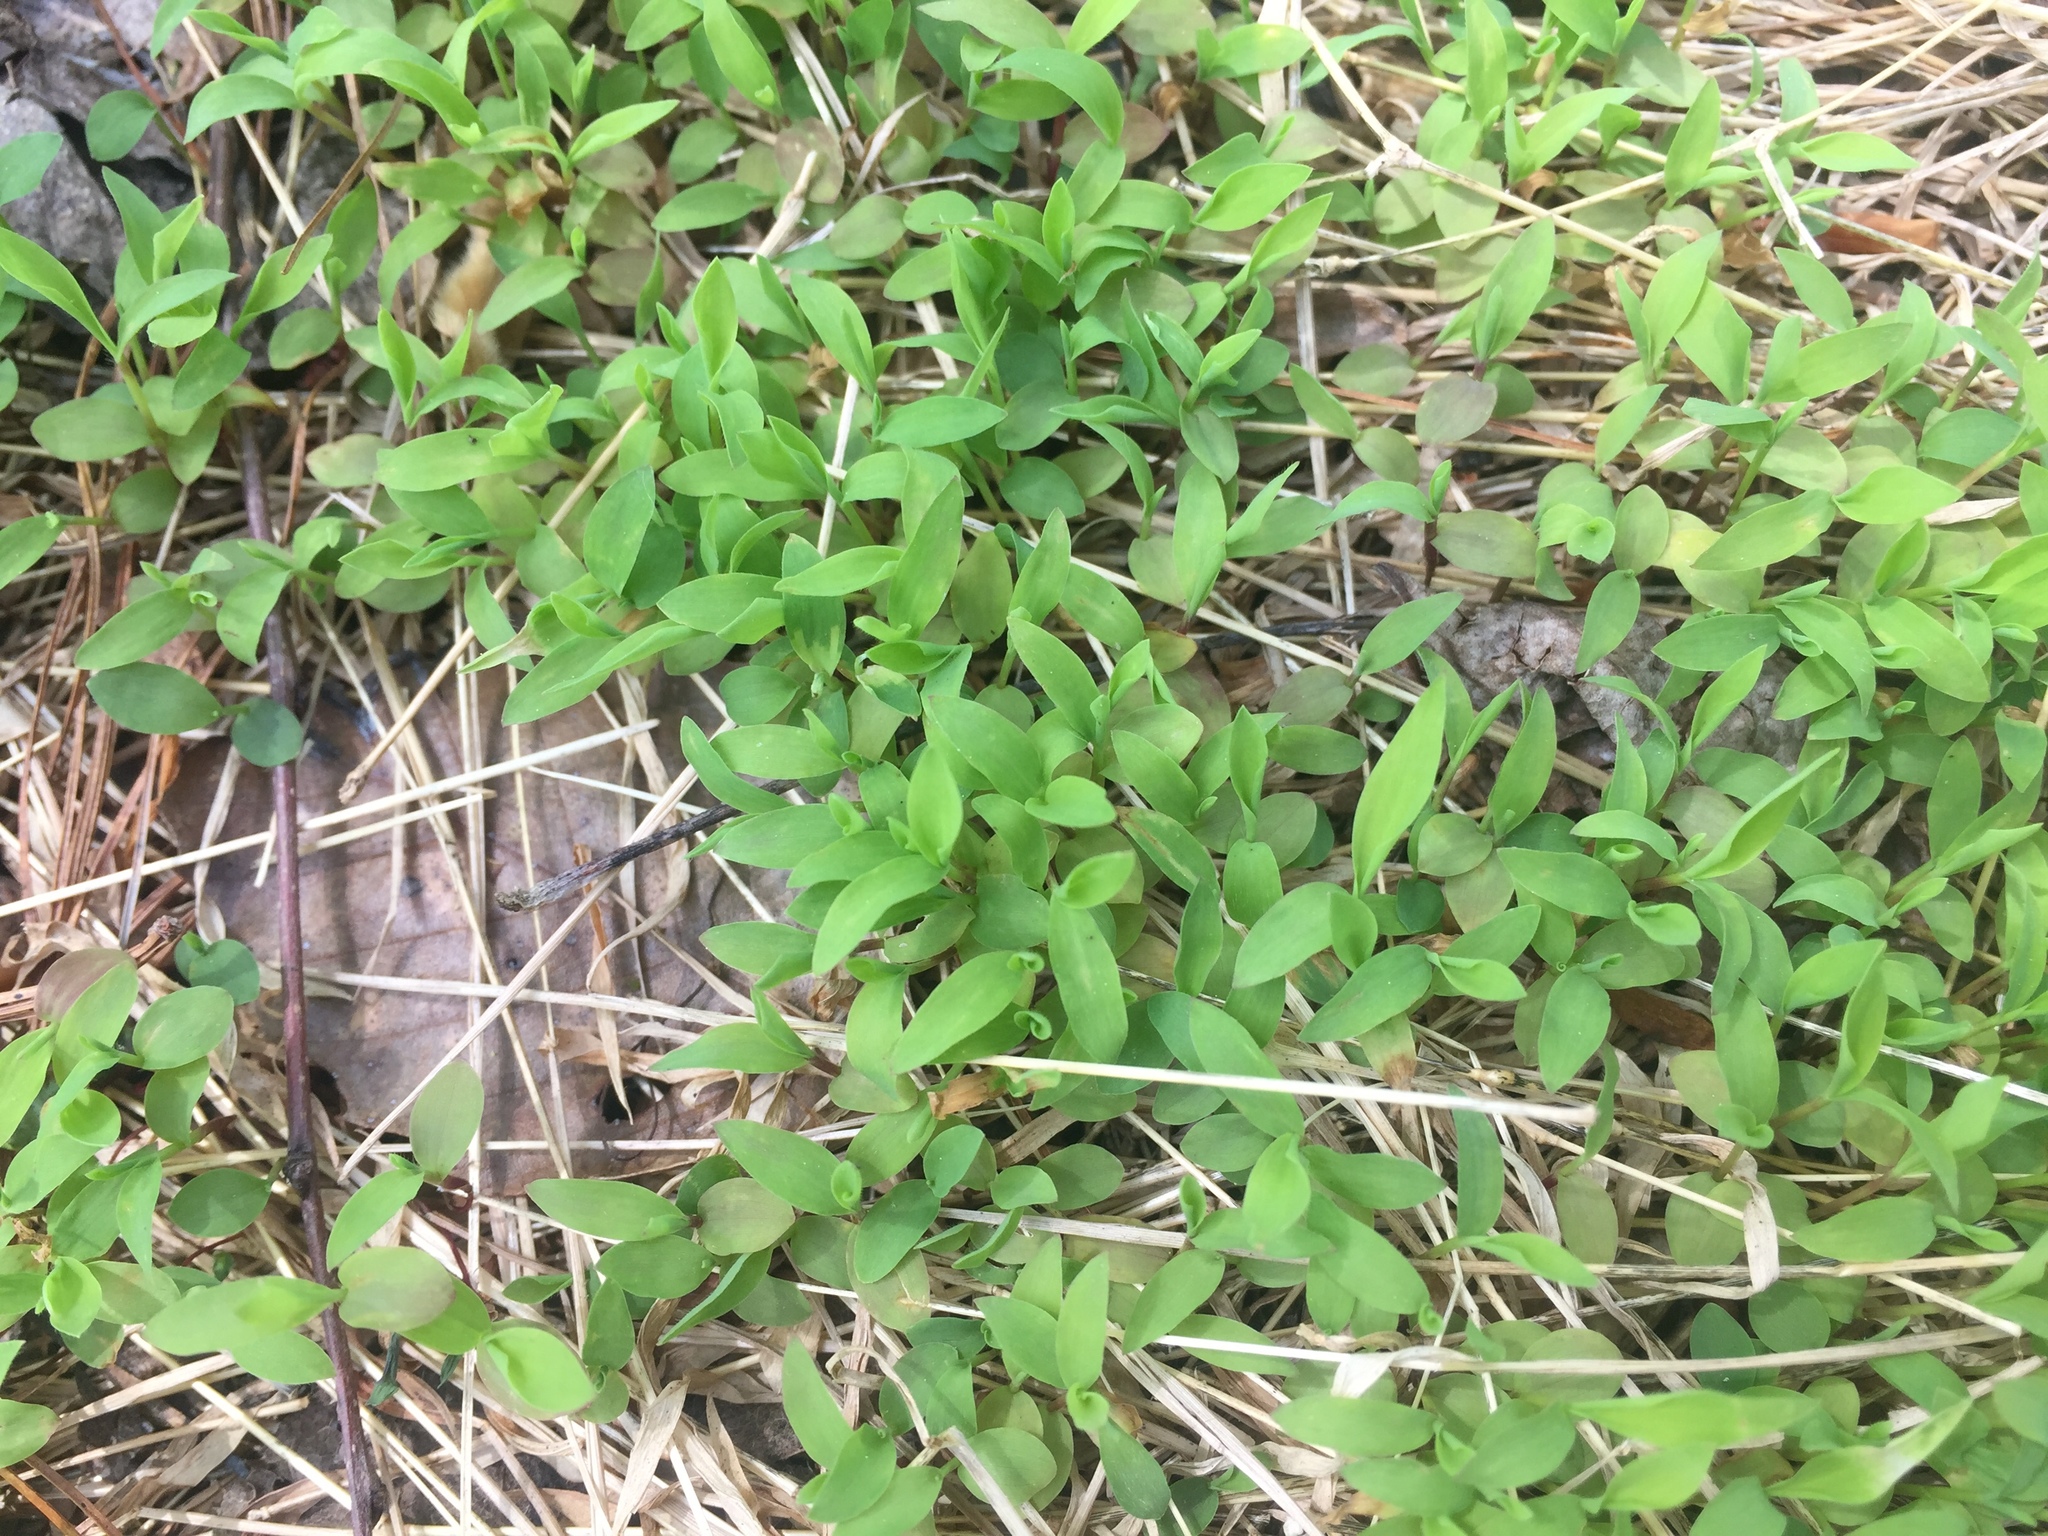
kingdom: Plantae
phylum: Tracheophyta
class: Liliopsida
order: Poales
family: Poaceae
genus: Microstegium
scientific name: Microstegium vimineum
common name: Japanese stiltgrass
